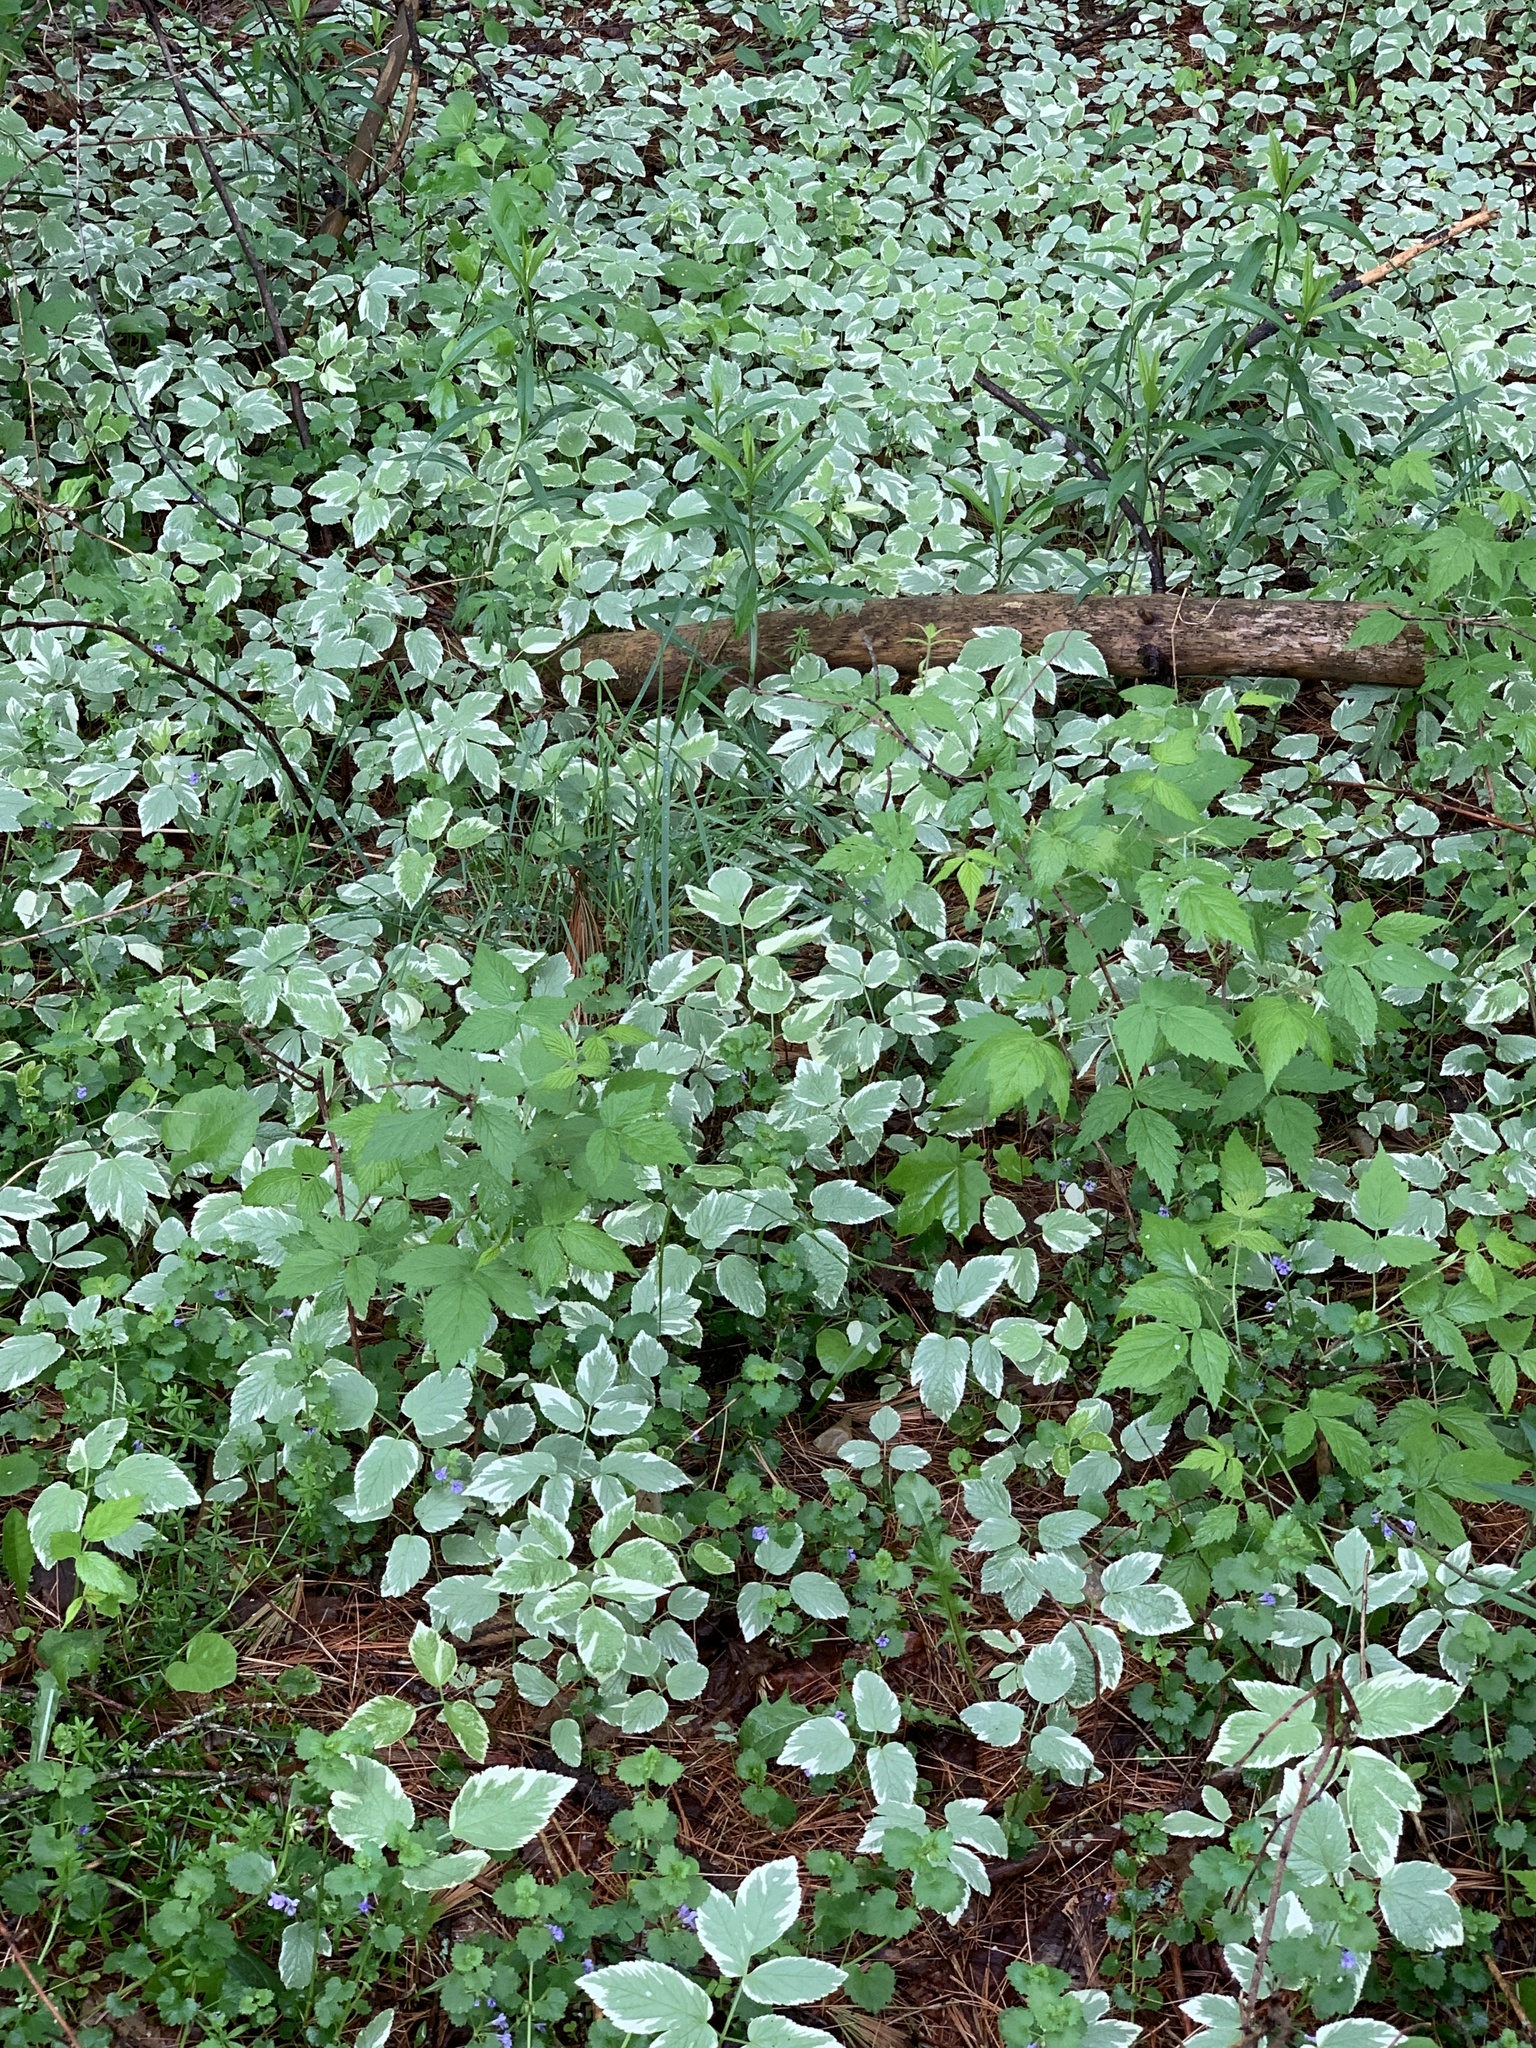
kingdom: Plantae
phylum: Tracheophyta
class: Magnoliopsida
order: Apiales
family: Apiaceae
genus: Aegopodium
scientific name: Aegopodium podagraria
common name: Ground-elder
